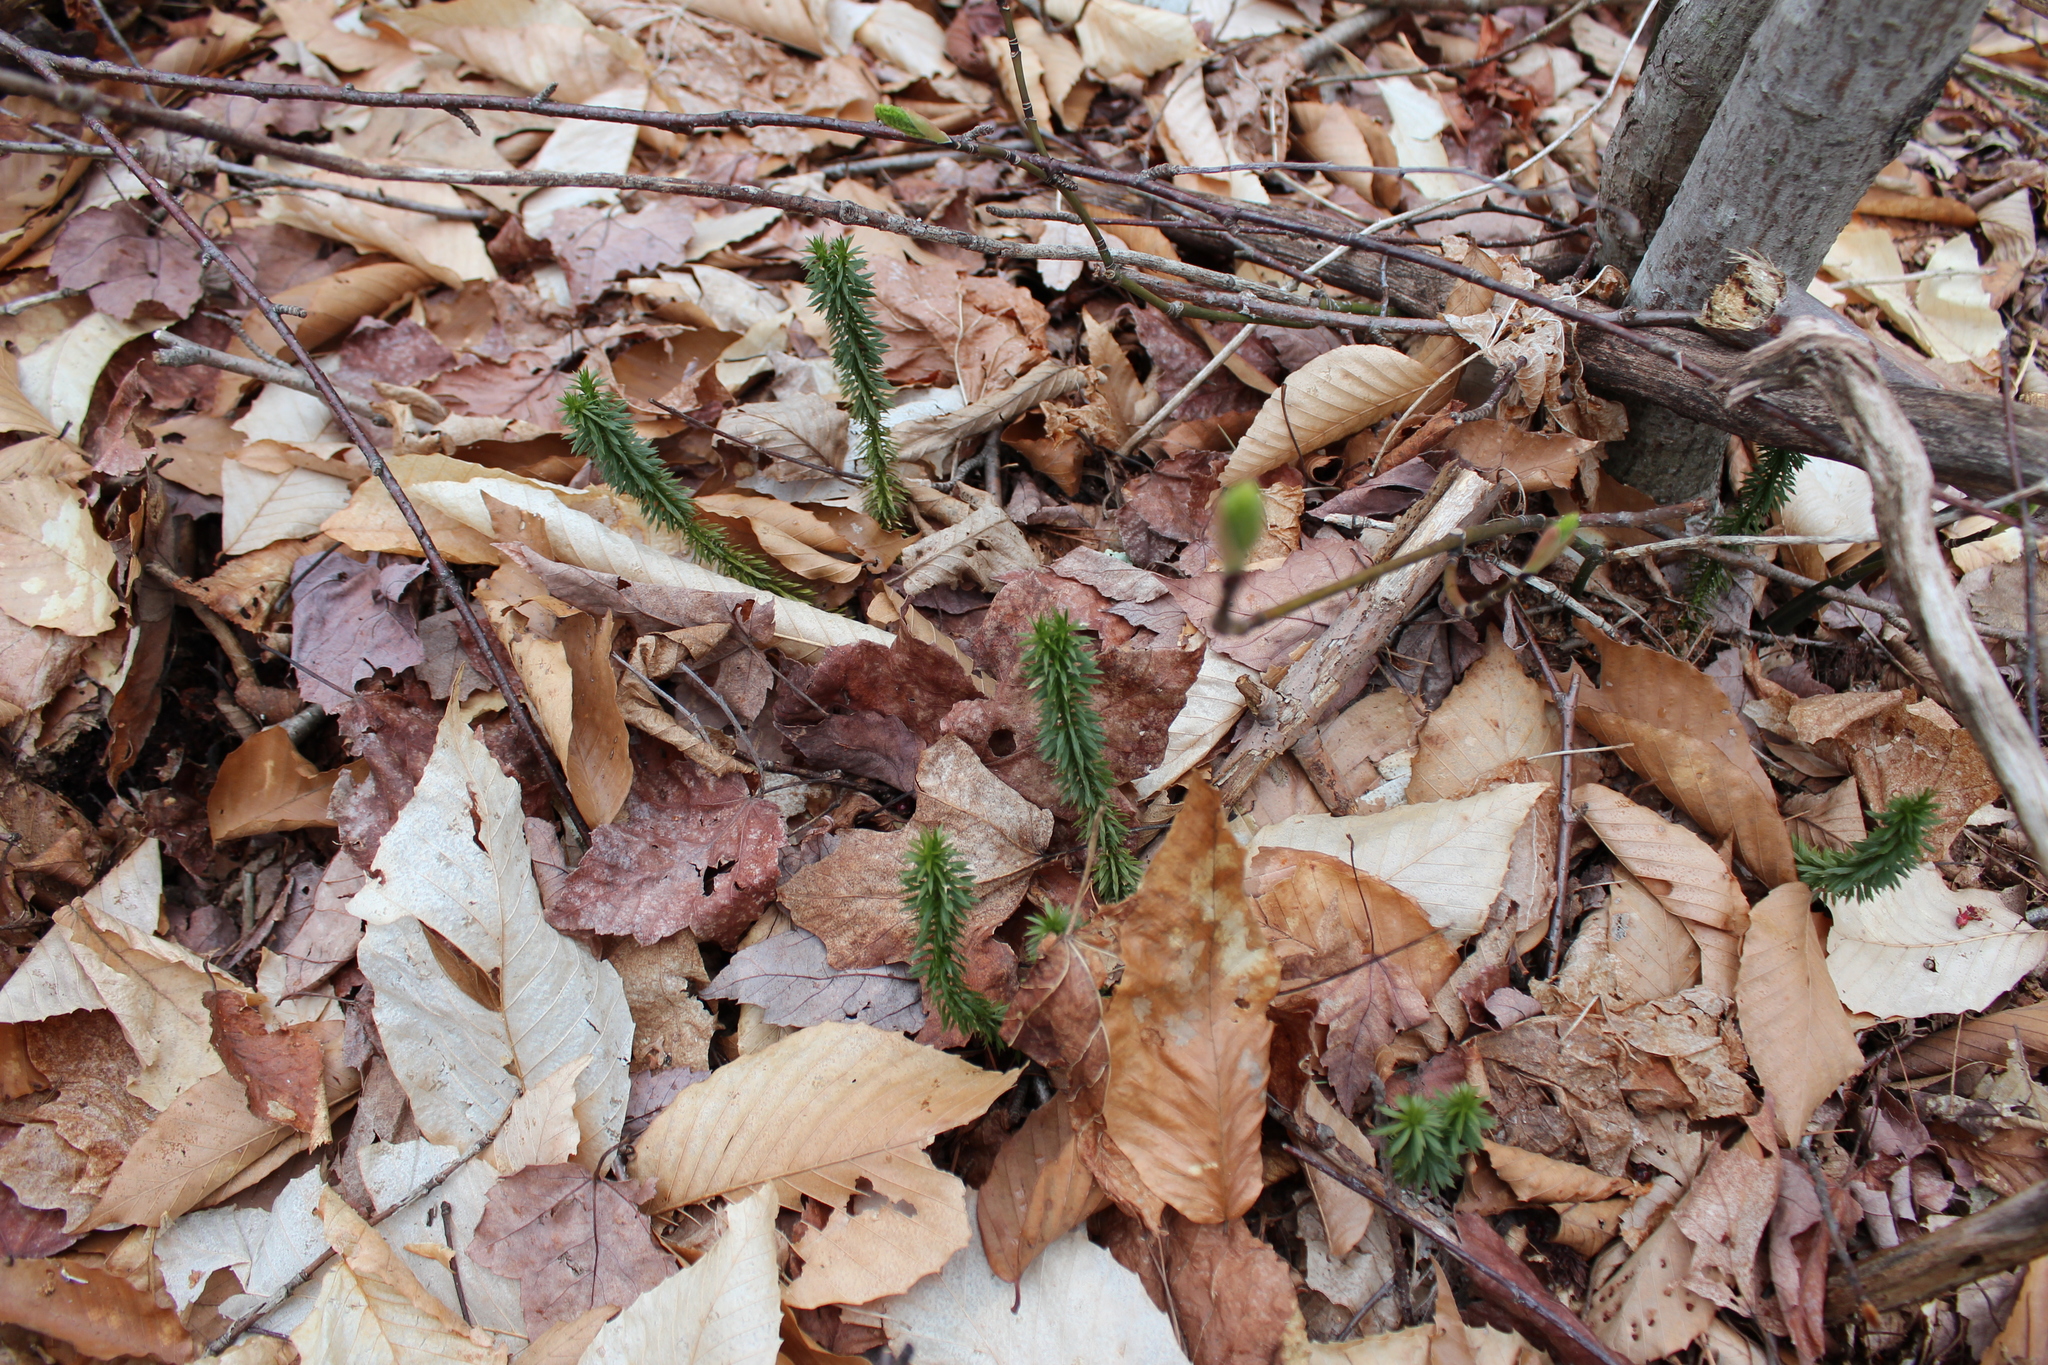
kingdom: Plantae
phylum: Tracheophyta
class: Lycopodiopsida
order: Lycopodiales
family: Lycopodiaceae
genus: Huperzia
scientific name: Huperzia lucidula
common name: Shining clubmoss
